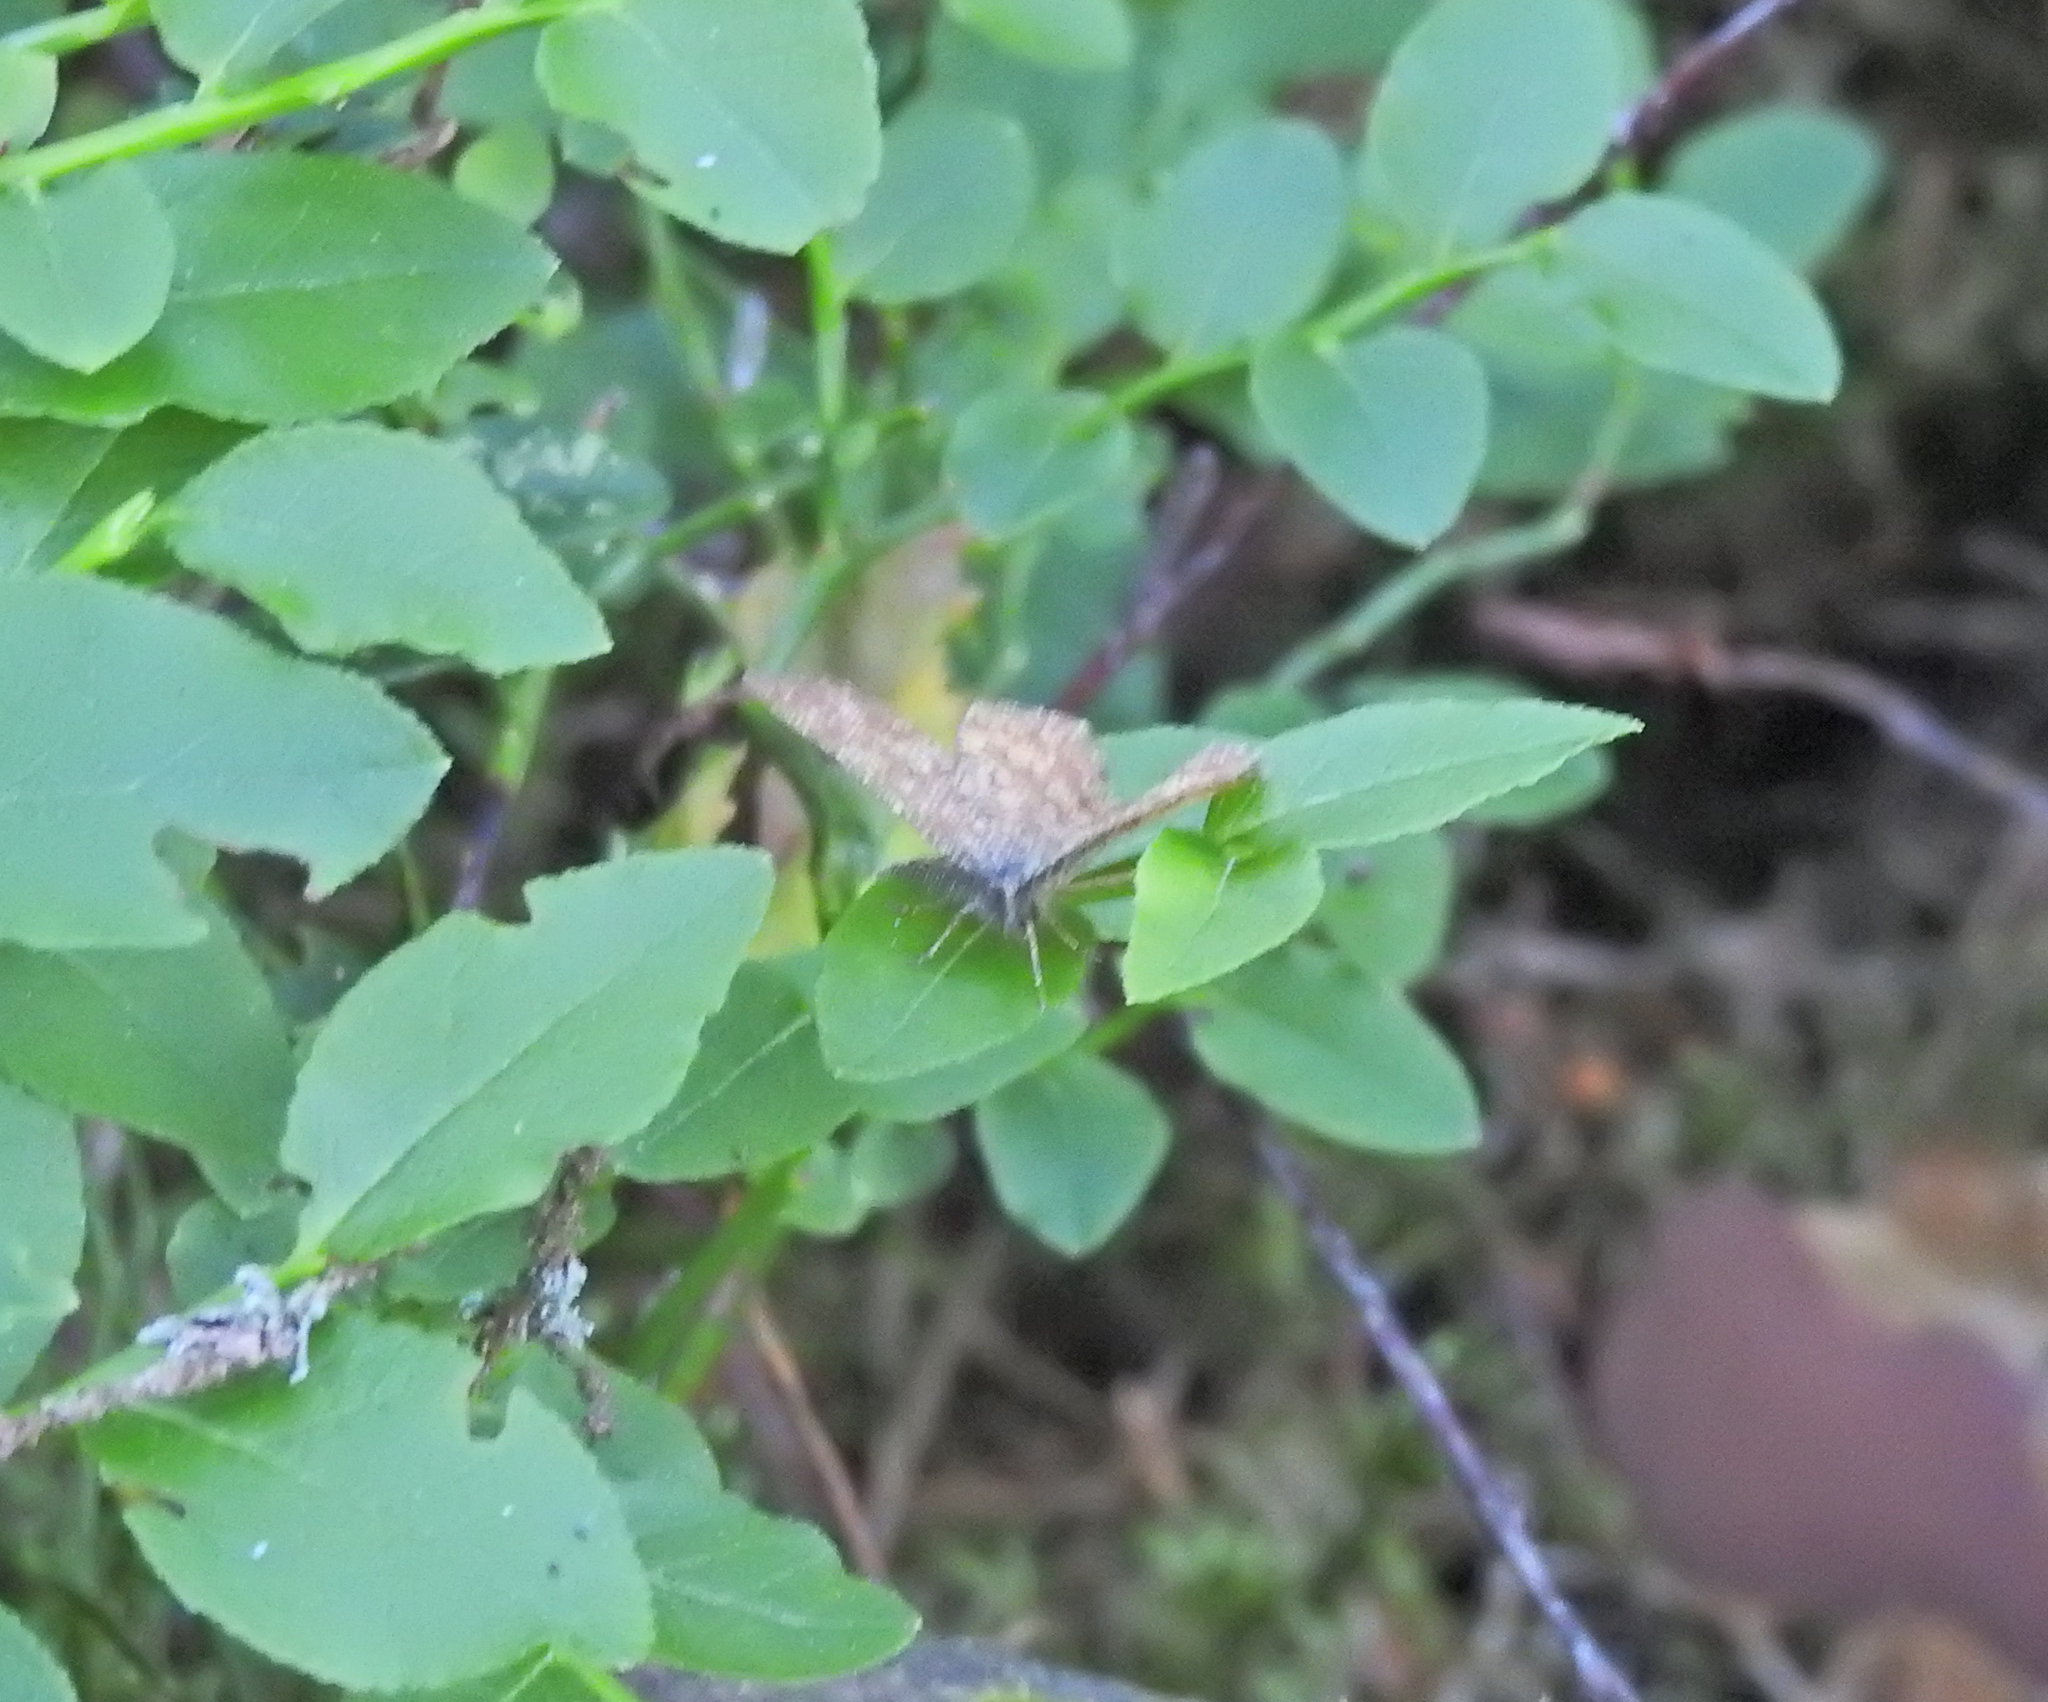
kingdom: Animalia
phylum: Arthropoda
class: Insecta
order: Lepidoptera
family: Geometridae
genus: Ematurga
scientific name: Ematurga atomaria
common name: Common heath
